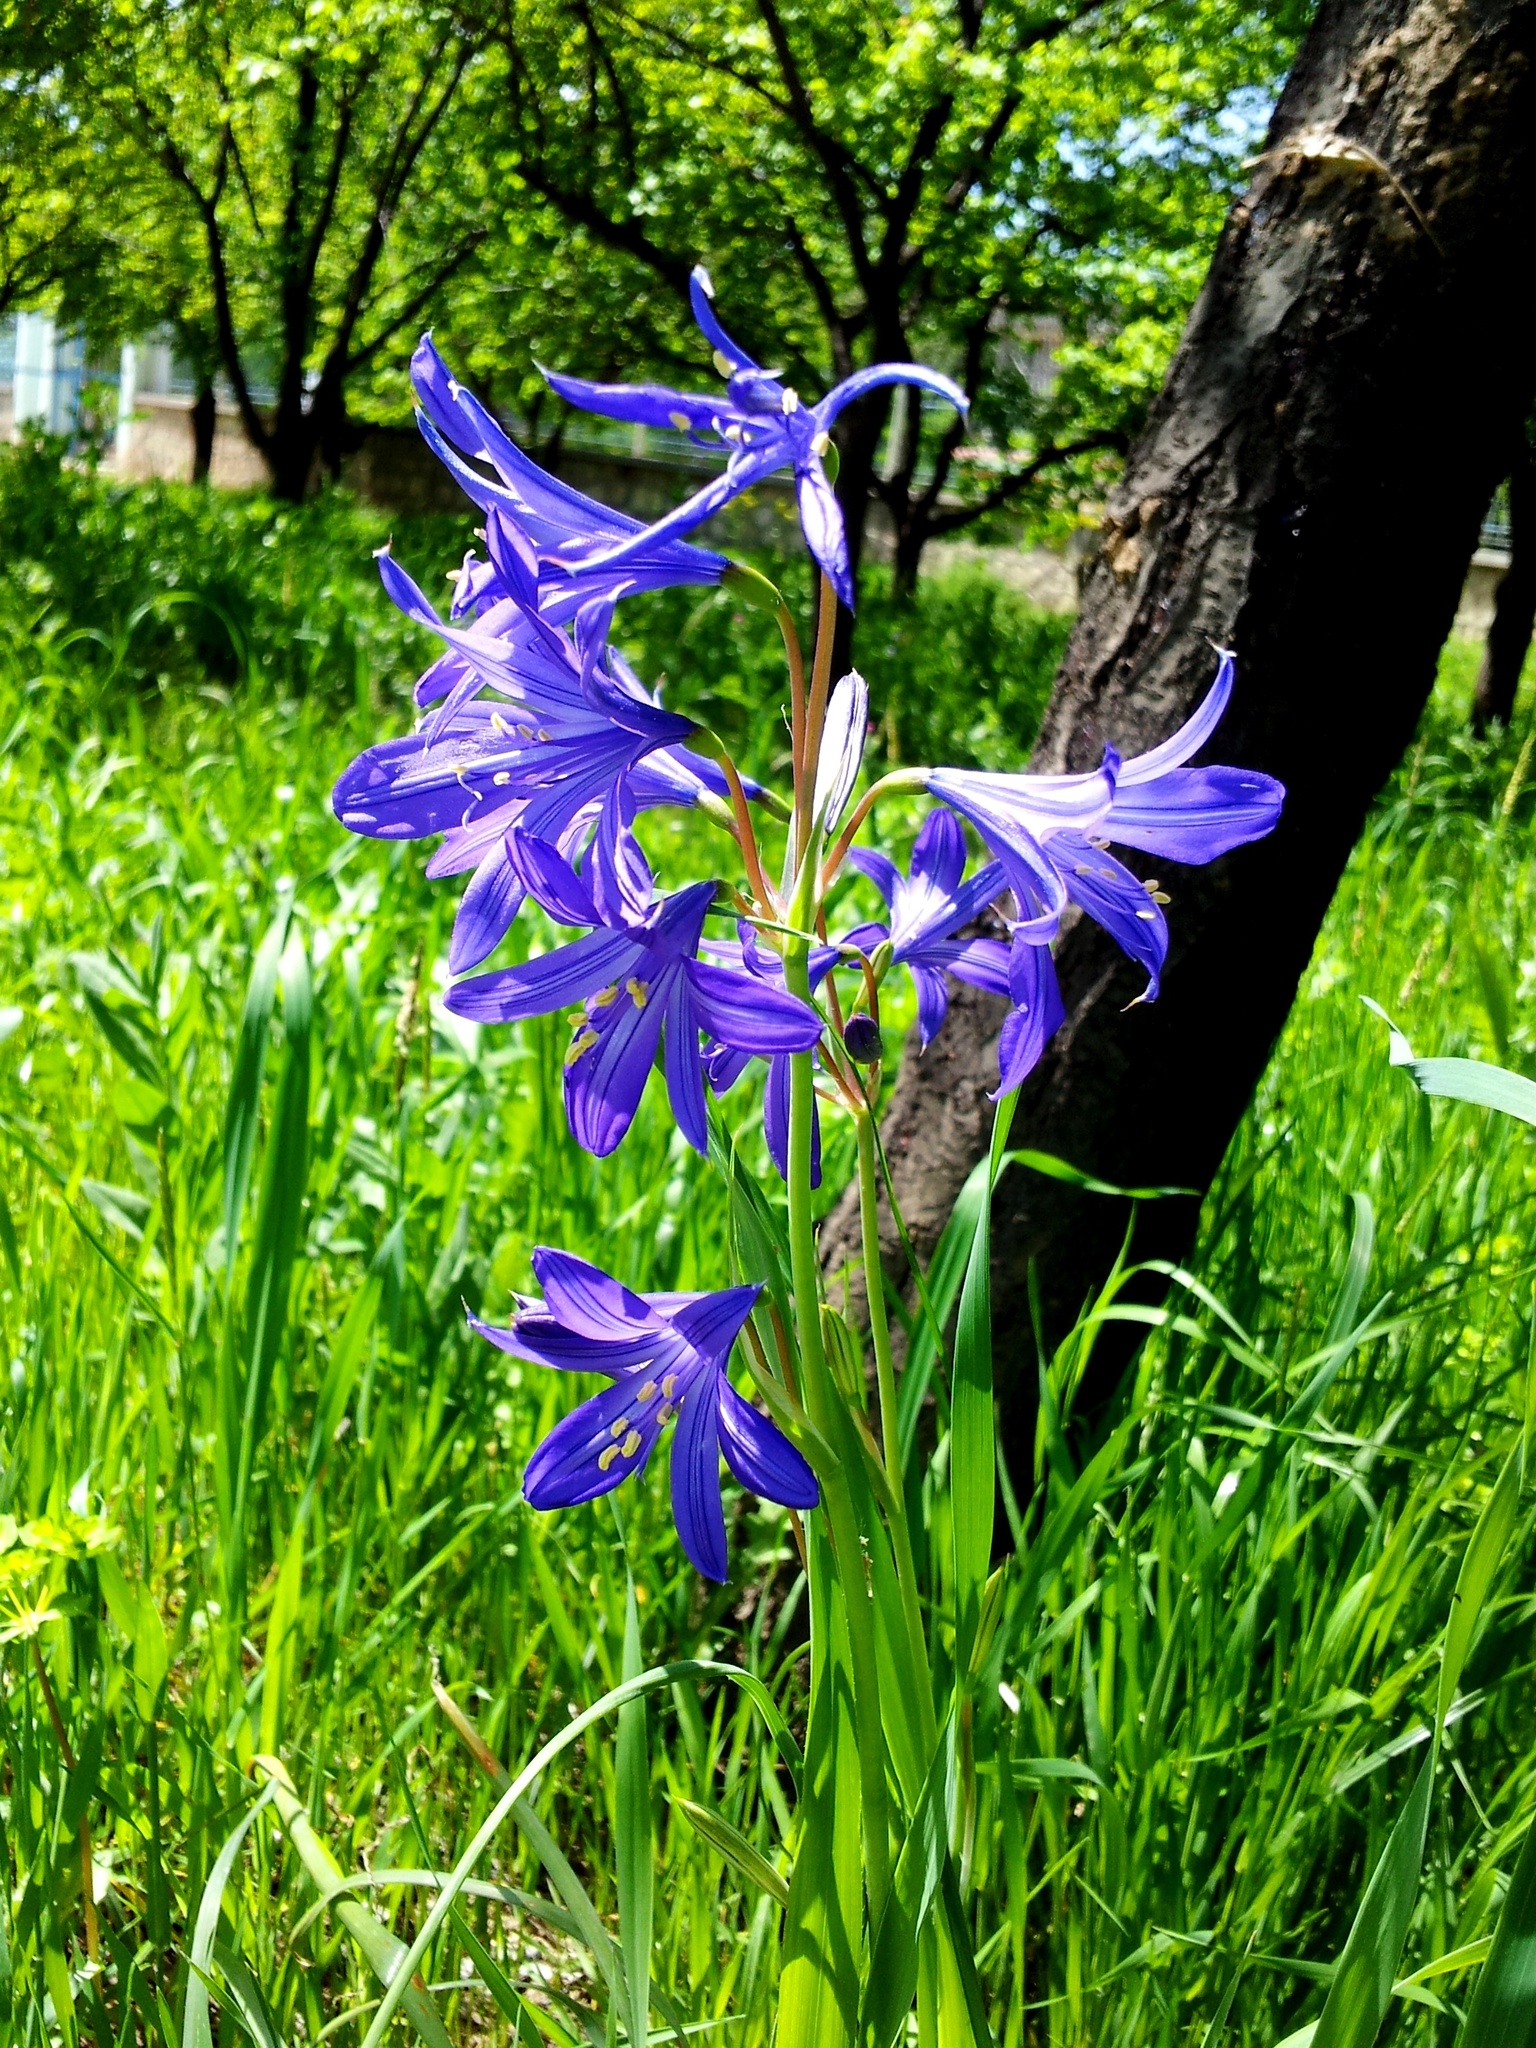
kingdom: Plantae
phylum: Tracheophyta
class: Liliopsida
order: Asparagales
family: Ixioliriaceae
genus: Ixiolirion
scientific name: Ixiolirion tataricum
